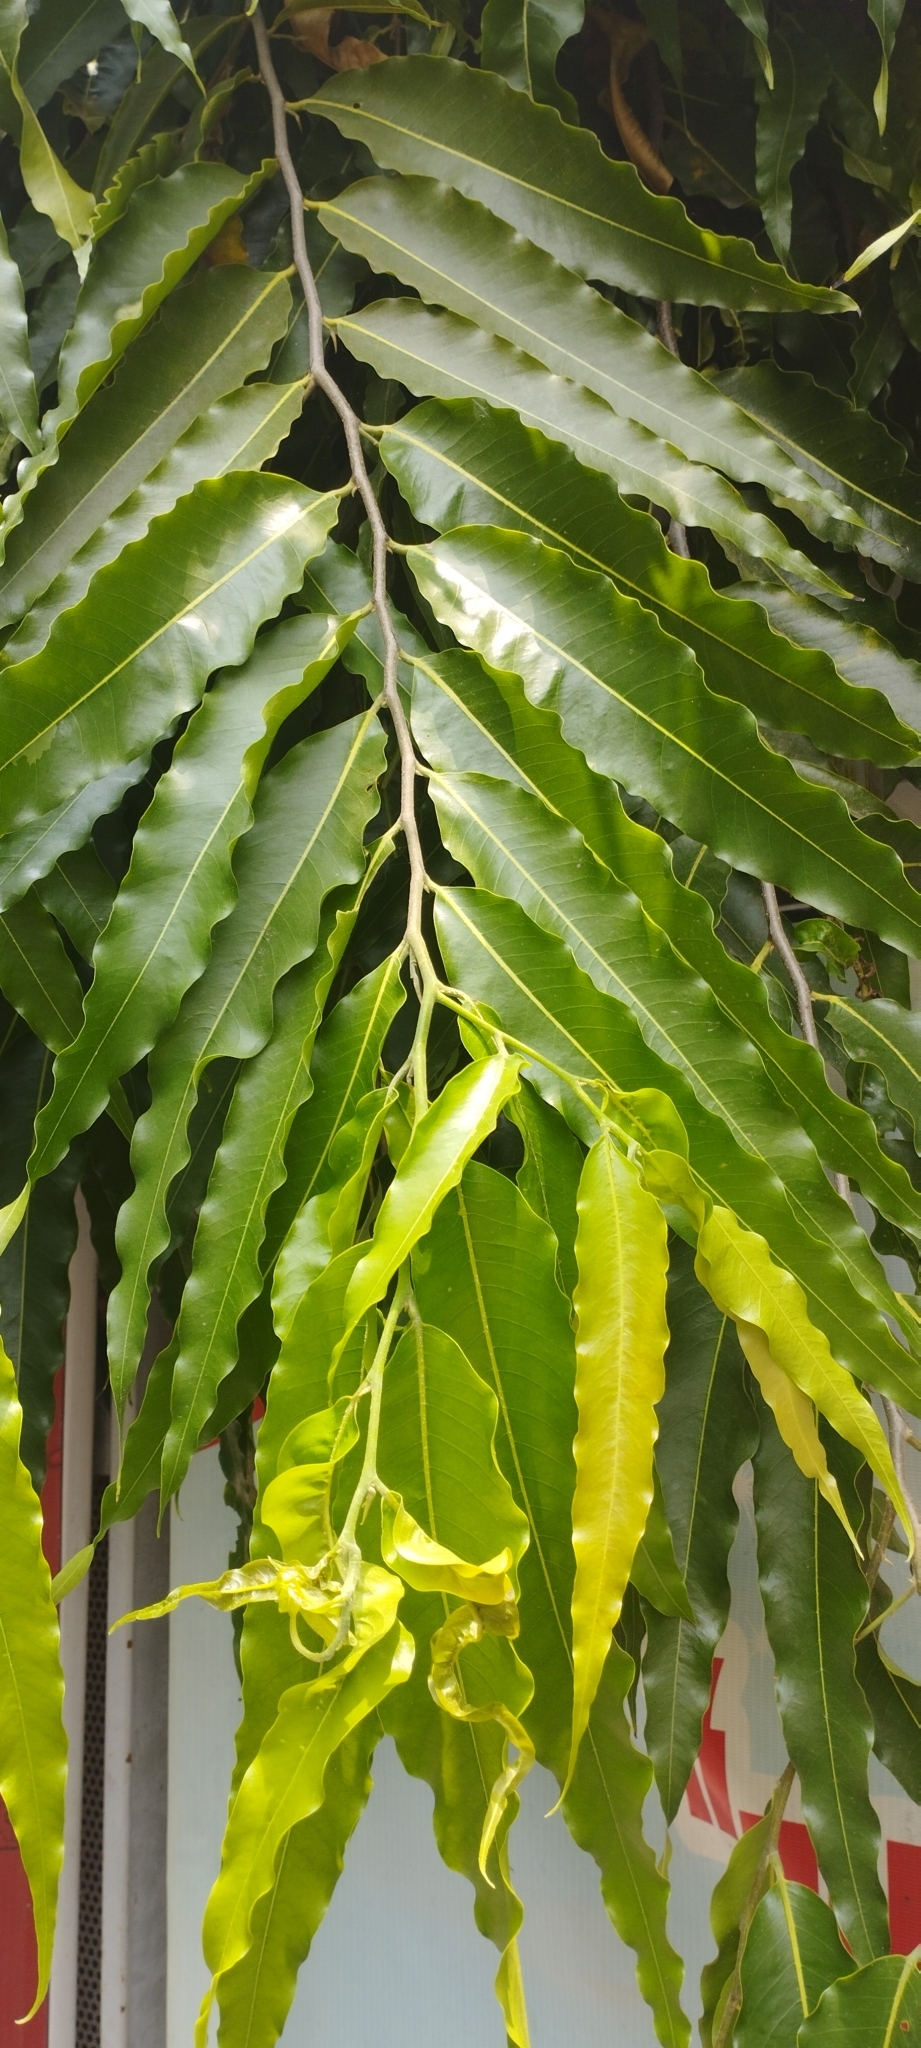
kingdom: Plantae
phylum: Tracheophyta
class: Magnoliopsida
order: Magnoliales
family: Annonaceae
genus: Polyalthia
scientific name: Polyalthia longifolia
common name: Cemetery-tree
